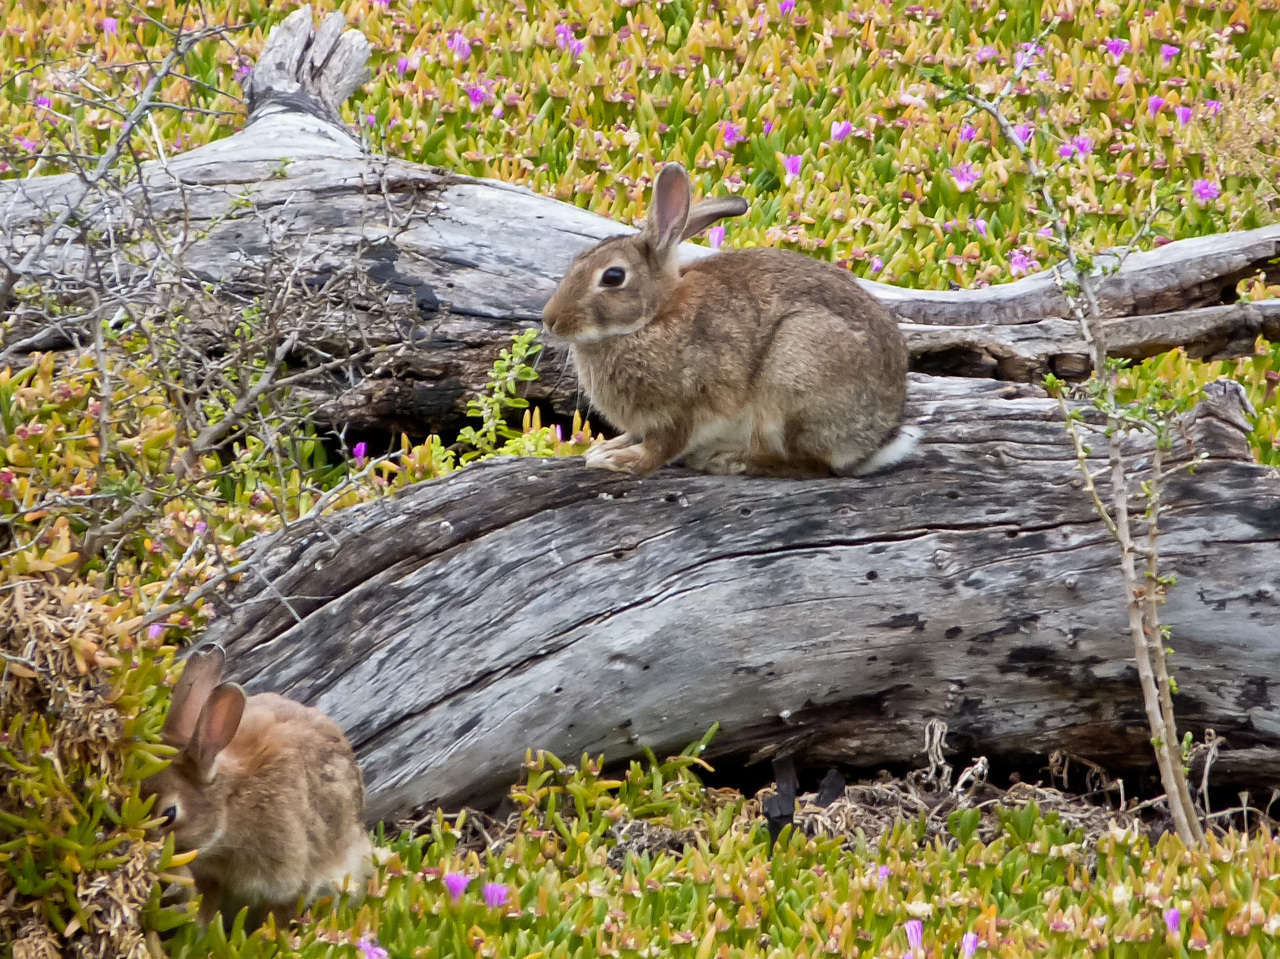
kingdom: Animalia
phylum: Chordata
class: Mammalia
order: Lagomorpha
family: Leporidae
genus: Oryctolagus
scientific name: Oryctolagus cuniculus
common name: European rabbit
